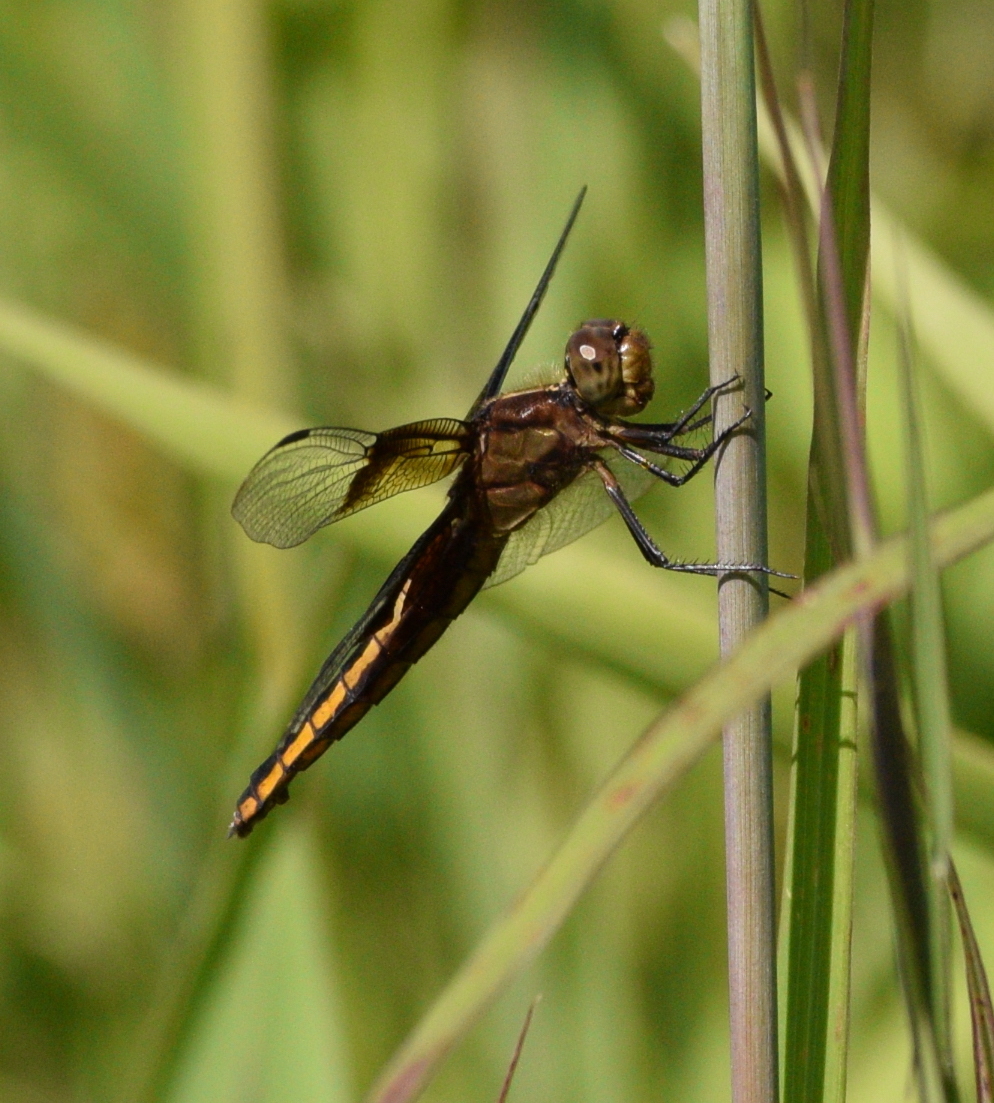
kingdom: Animalia
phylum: Arthropoda
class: Insecta
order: Odonata
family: Libellulidae
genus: Libellula
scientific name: Libellula luctuosa
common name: Widow skimmer
